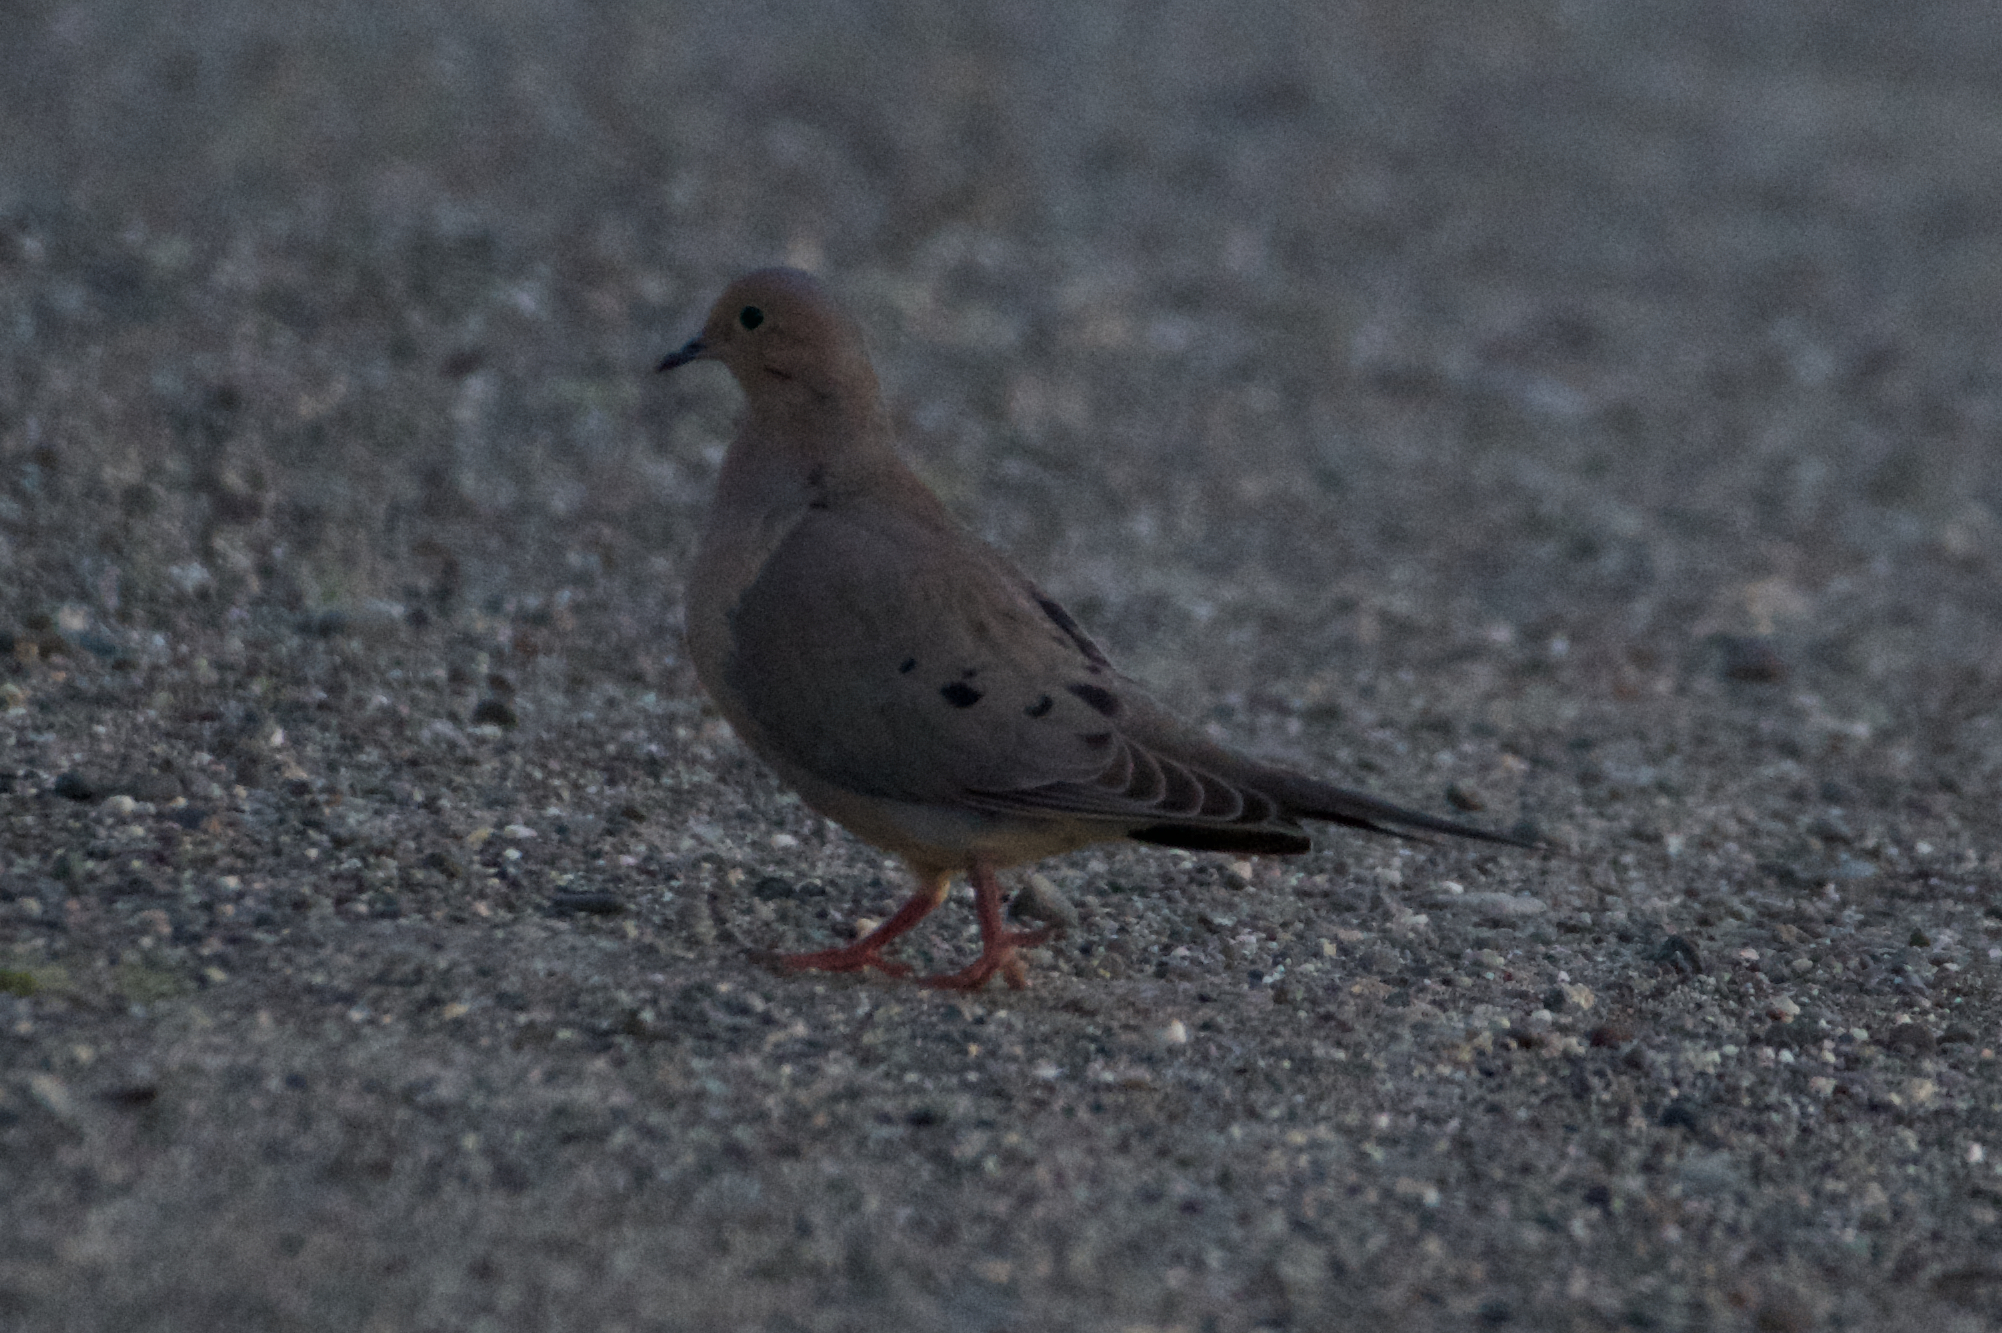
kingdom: Animalia
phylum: Chordata
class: Aves
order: Columbiformes
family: Columbidae
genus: Zenaida
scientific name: Zenaida macroura
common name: Mourning dove
